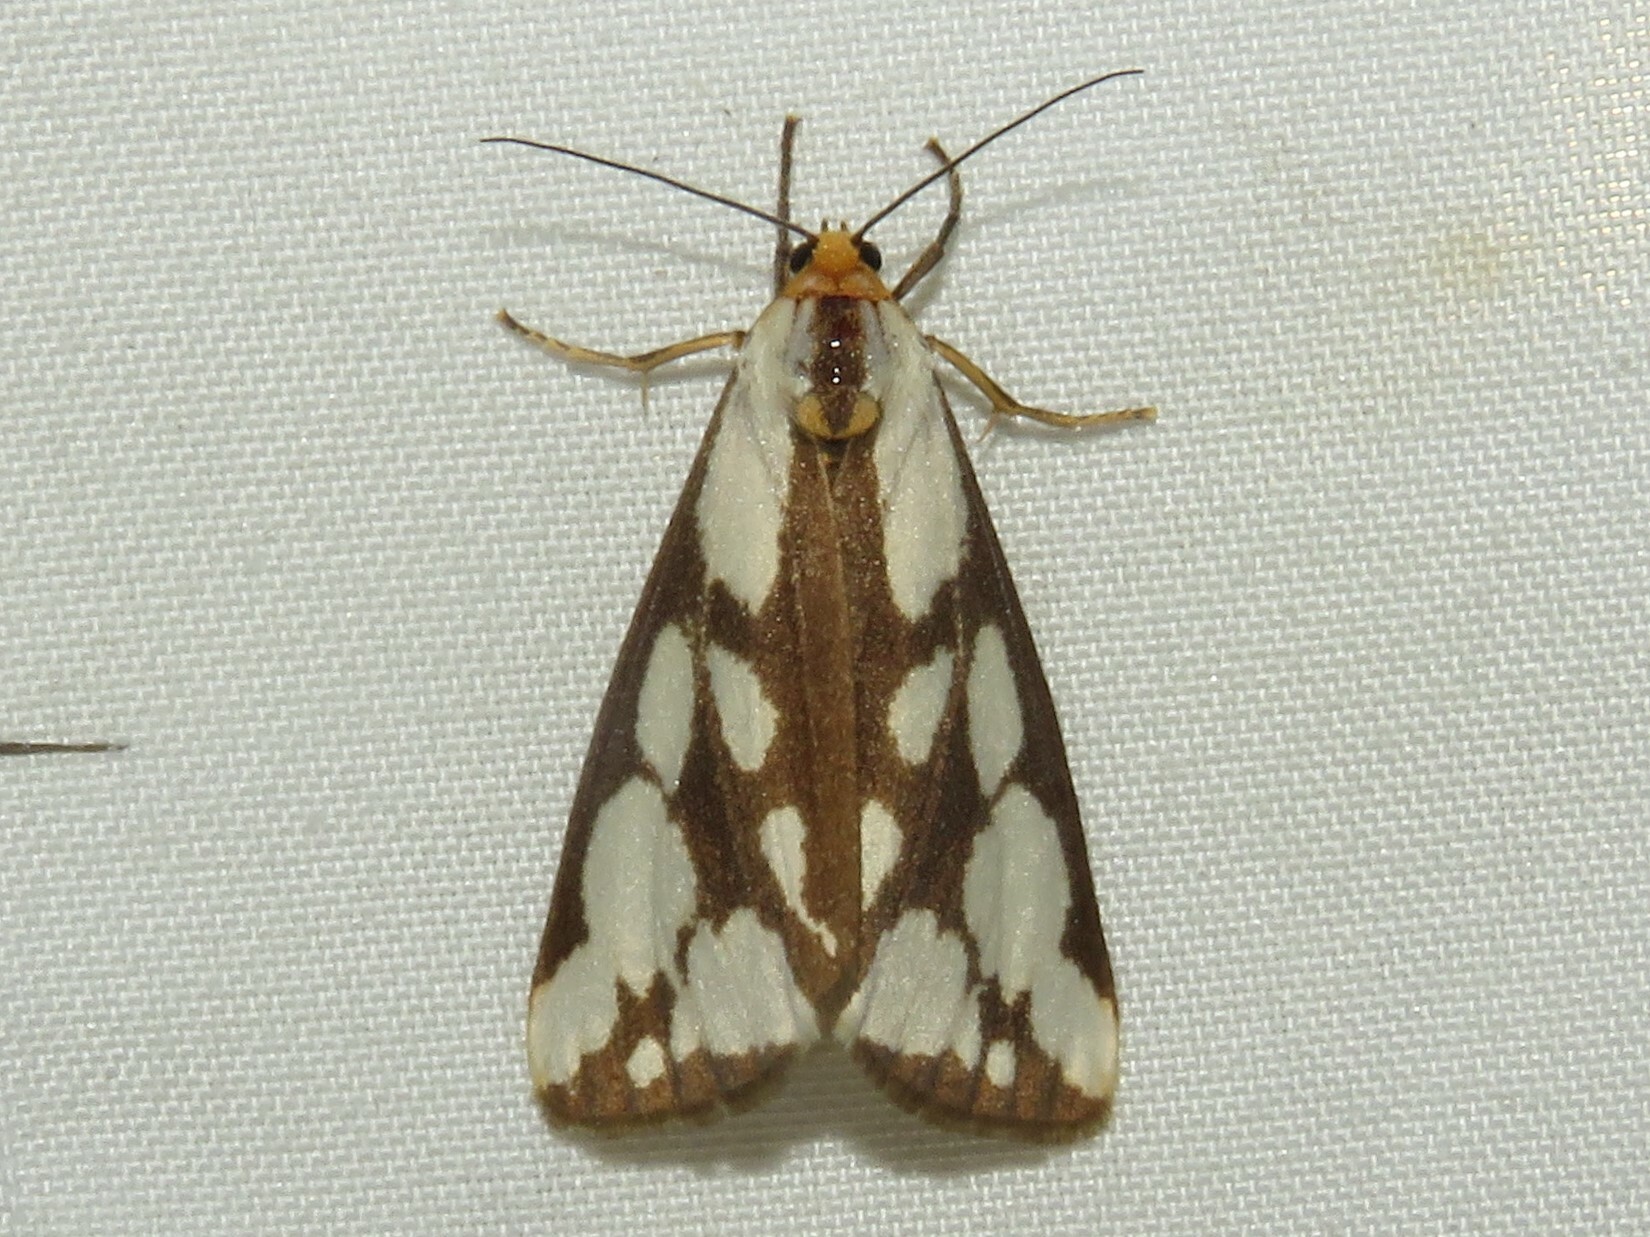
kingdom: Animalia
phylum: Arthropoda
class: Insecta
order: Lepidoptera
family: Erebidae
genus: Haploa
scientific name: Haploa confusa
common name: Confused haploa moth
